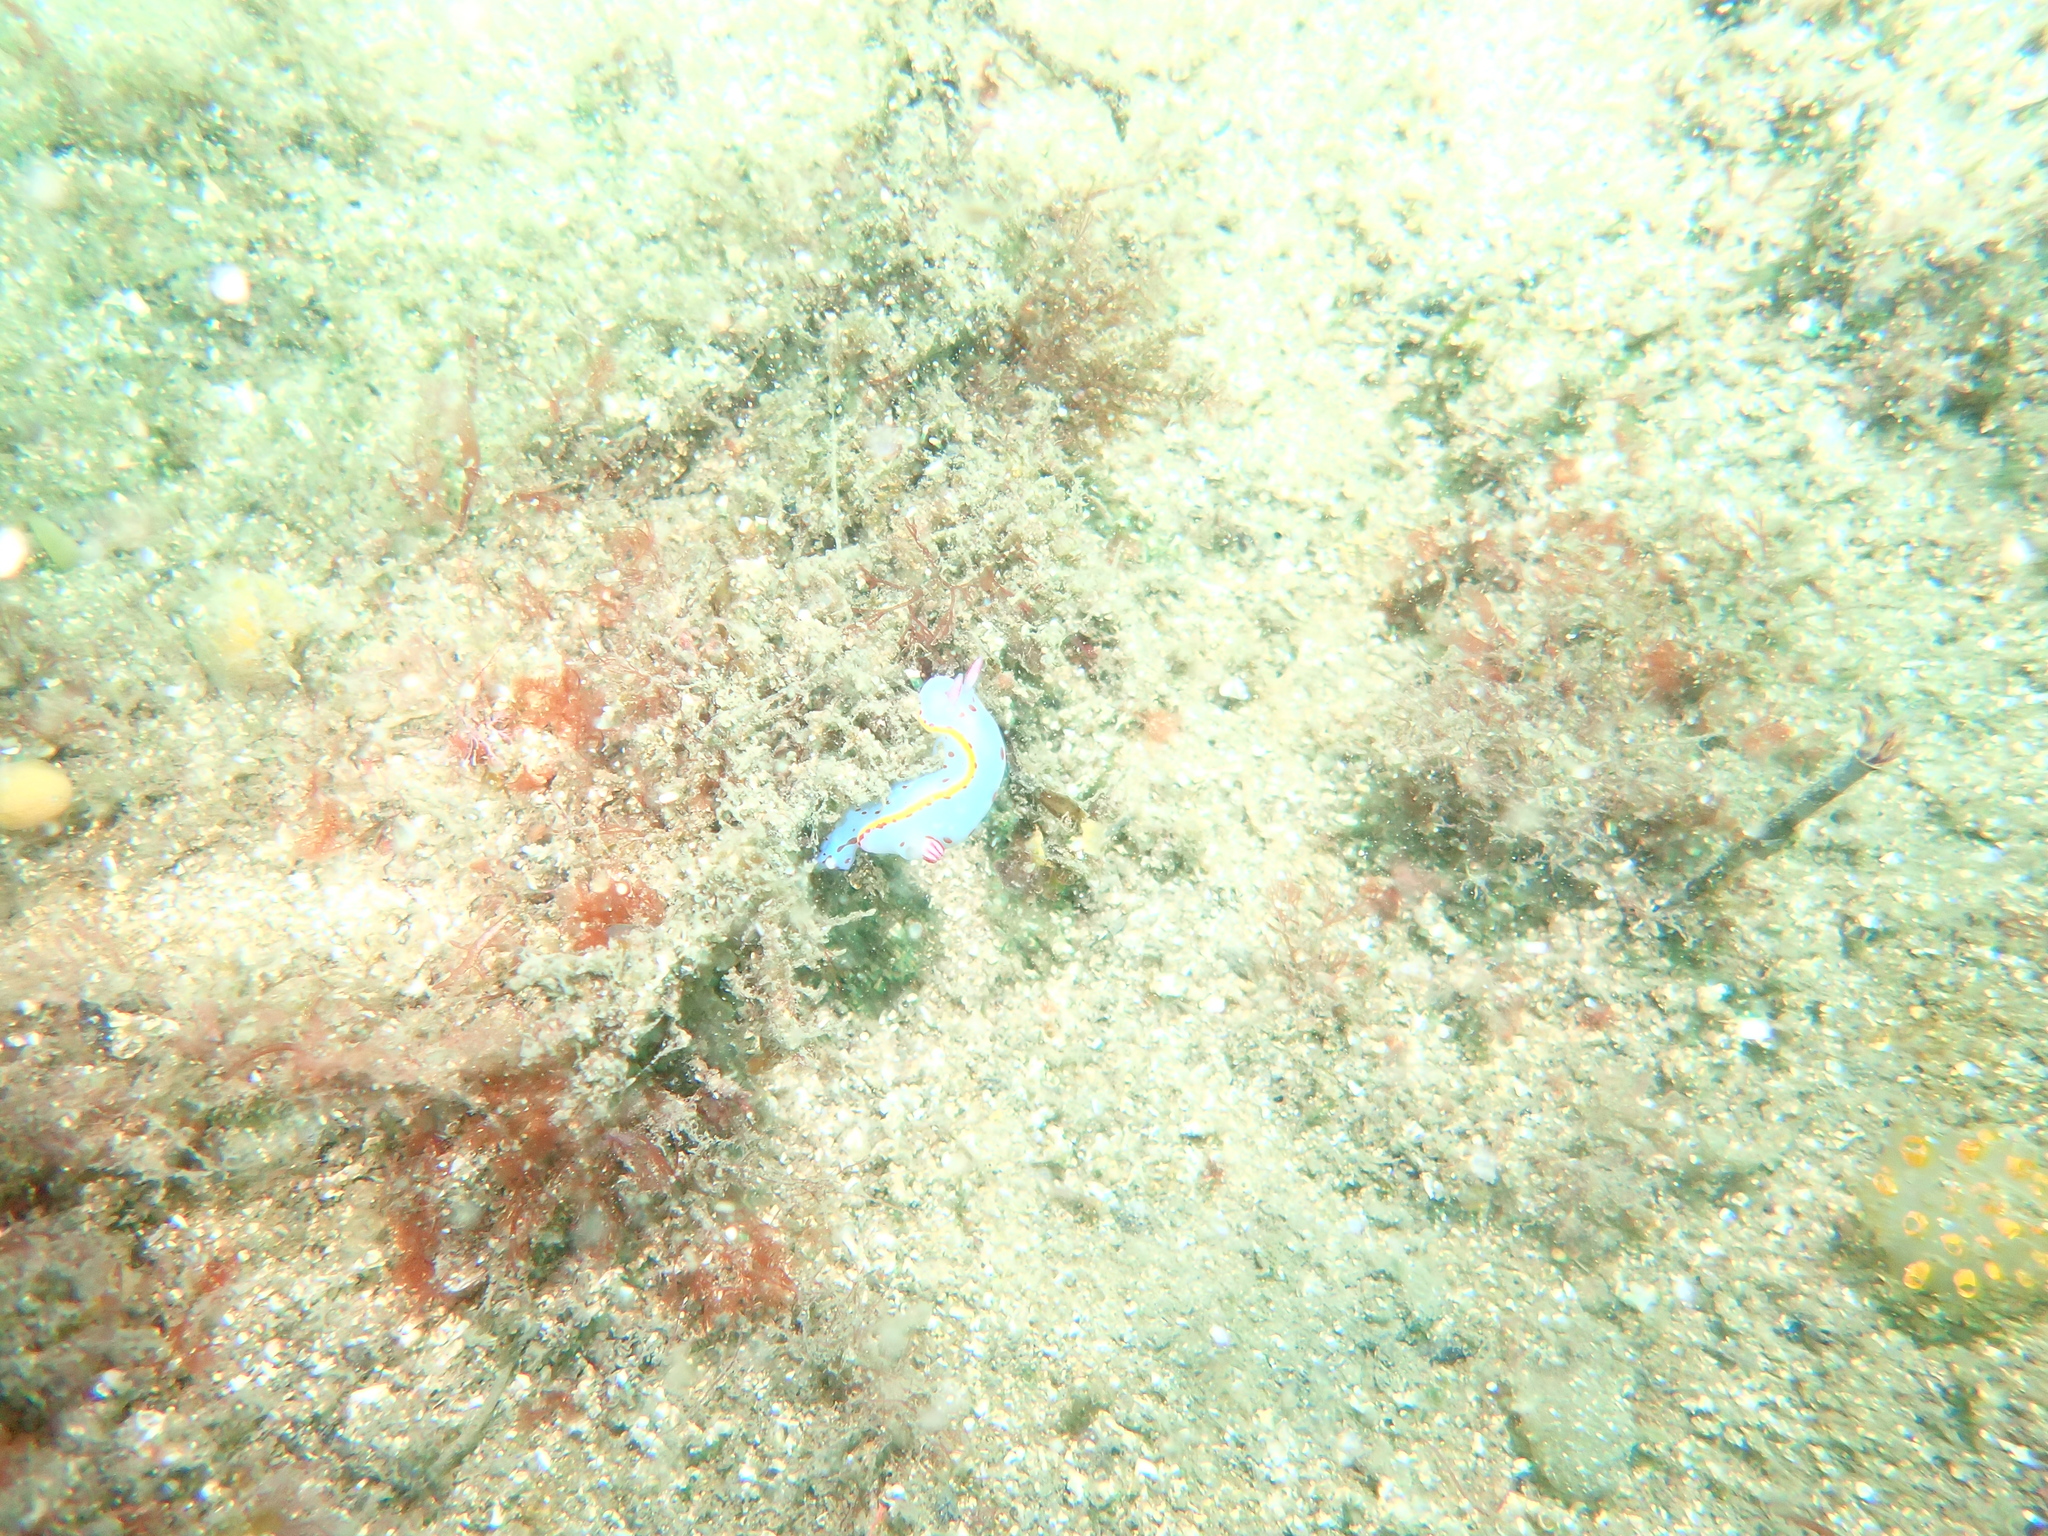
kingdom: Animalia
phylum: Mollusca
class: Gastropoda
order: Nudibranchia
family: Chromodorididae
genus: Hypselodoris
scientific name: Hypselodoris bennetti
